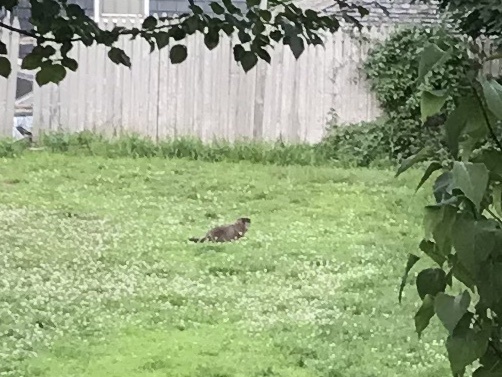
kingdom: Animalia
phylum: Chordata
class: Mammalia
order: Rodentia
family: Sciuridae
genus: Marmota
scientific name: Marmota monax
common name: Groundhog
